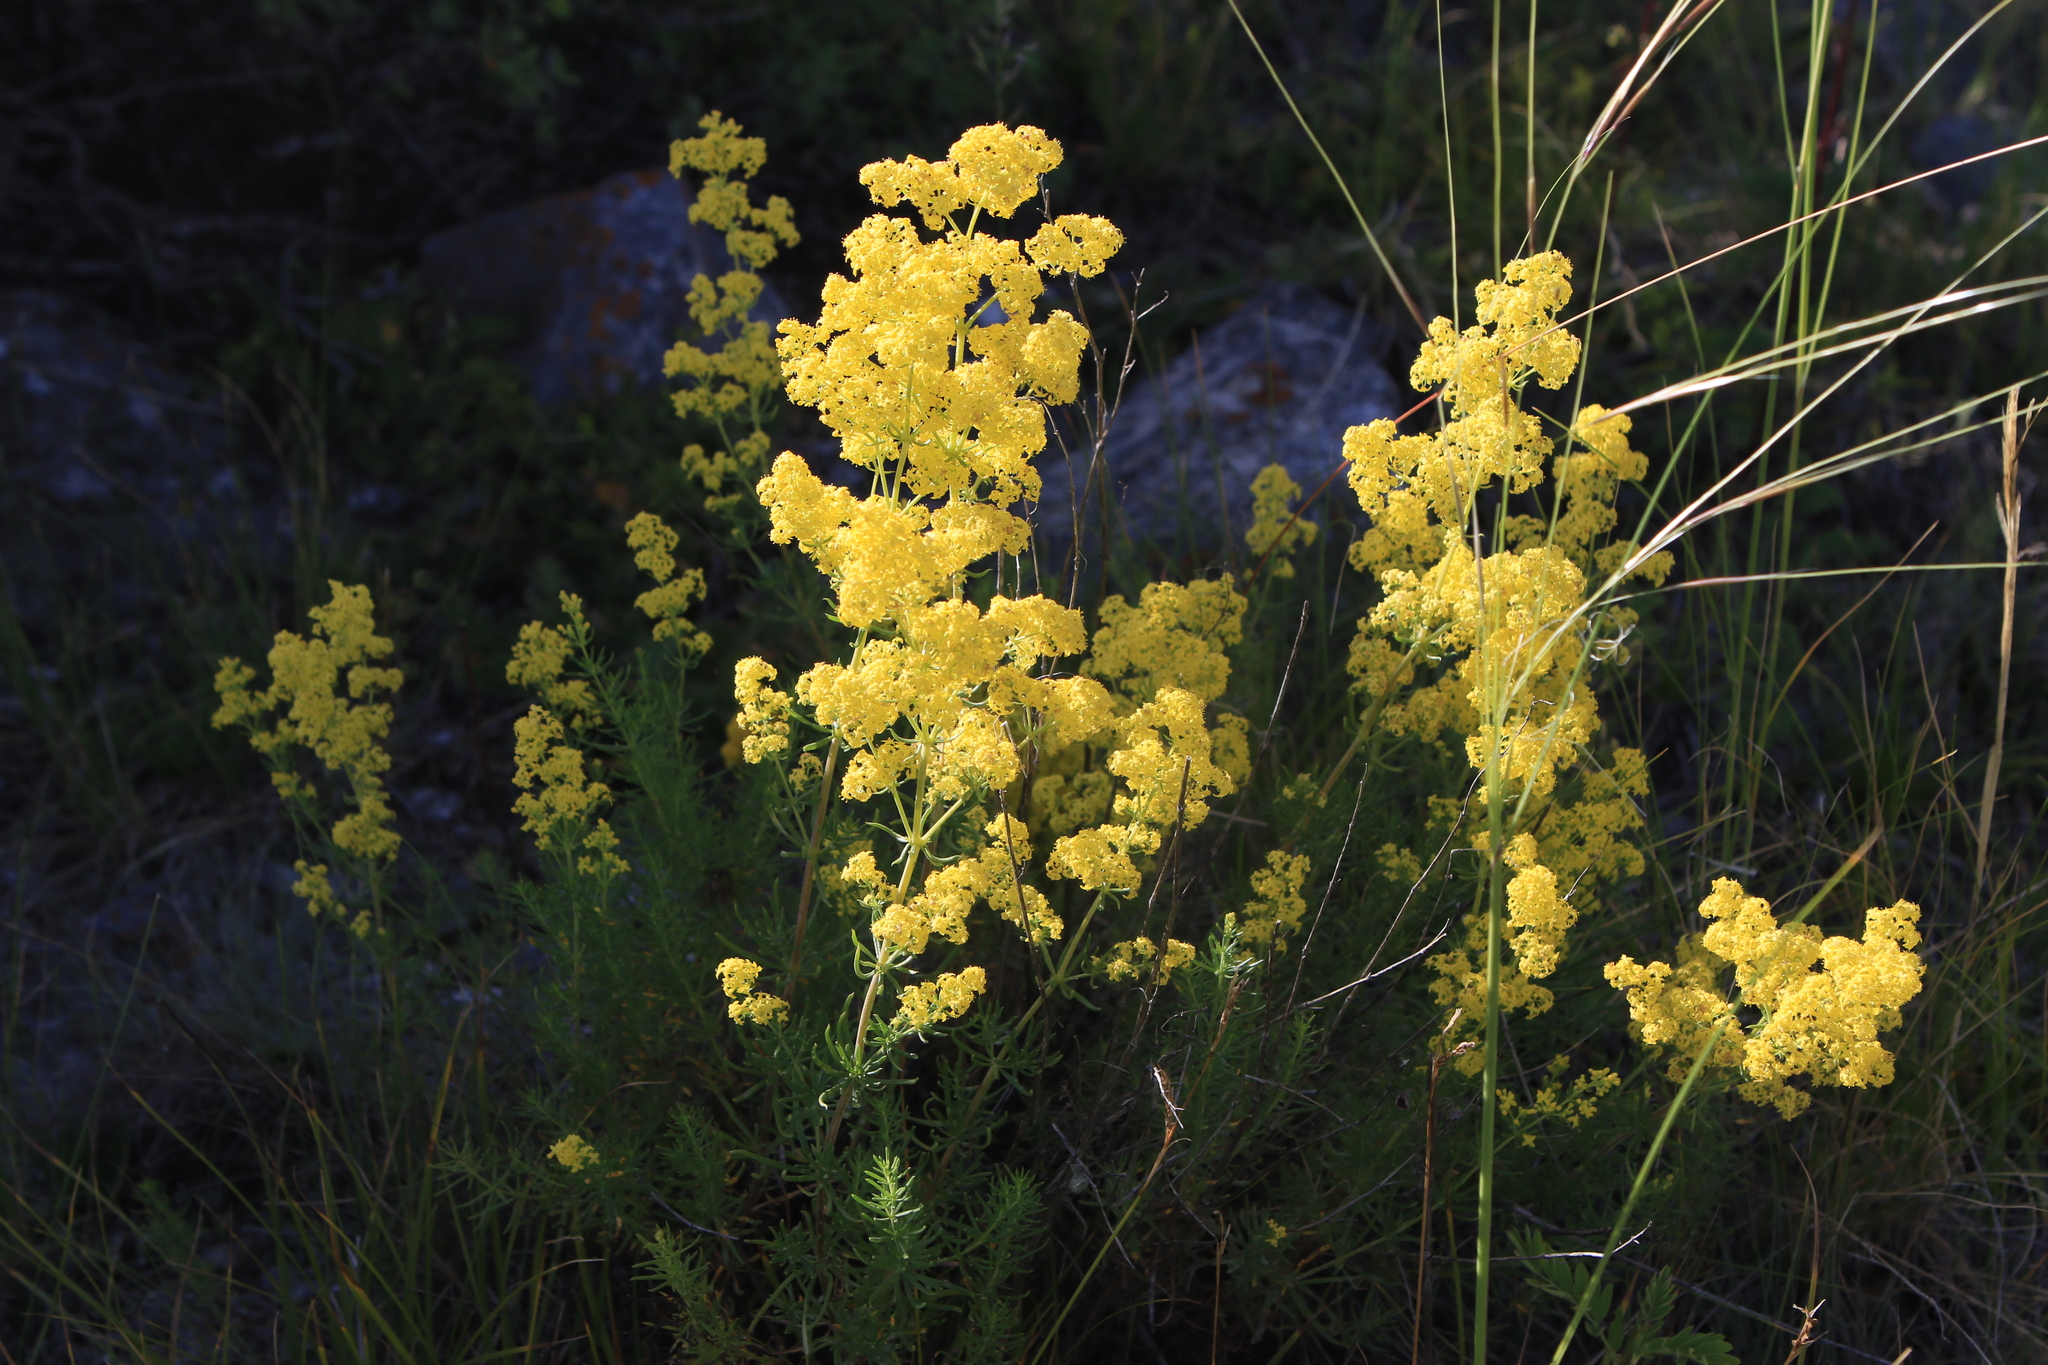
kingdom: Plantae
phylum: Tracheophyta
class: Magnoliopsida
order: Gentianales
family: Rubiaceae
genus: Galium
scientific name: Galium verum
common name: Lady's bedstraw
